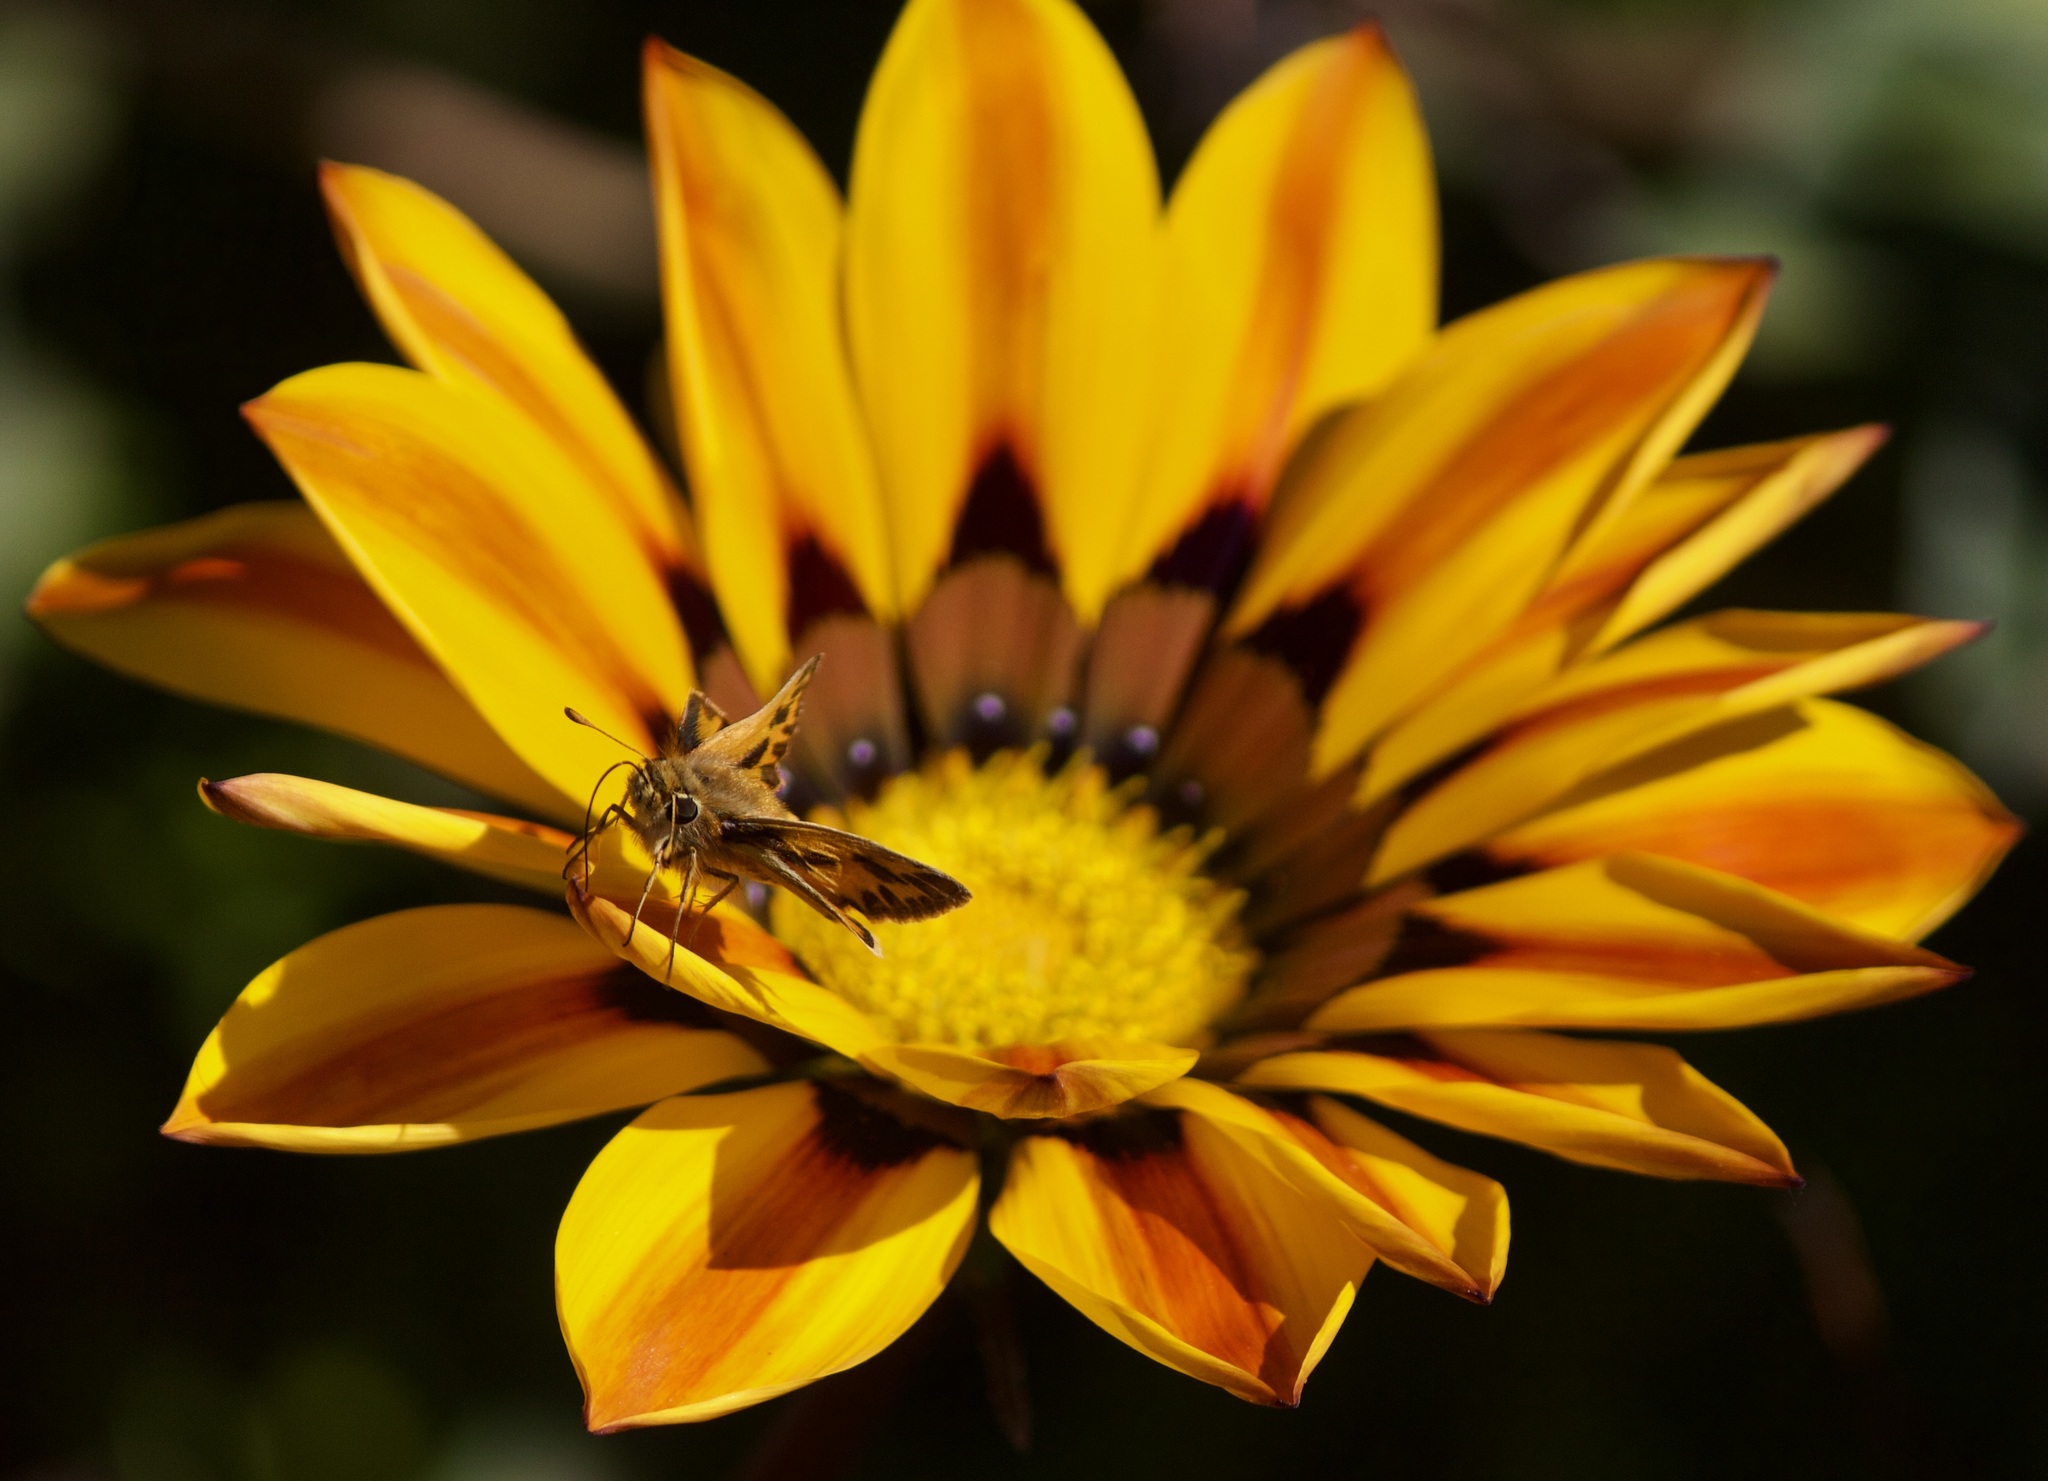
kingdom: Animalia
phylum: Arthropoda
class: Insecta
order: Lepidoptera
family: Hesperiidae
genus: Hylephila
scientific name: Hylephila fasciolata
